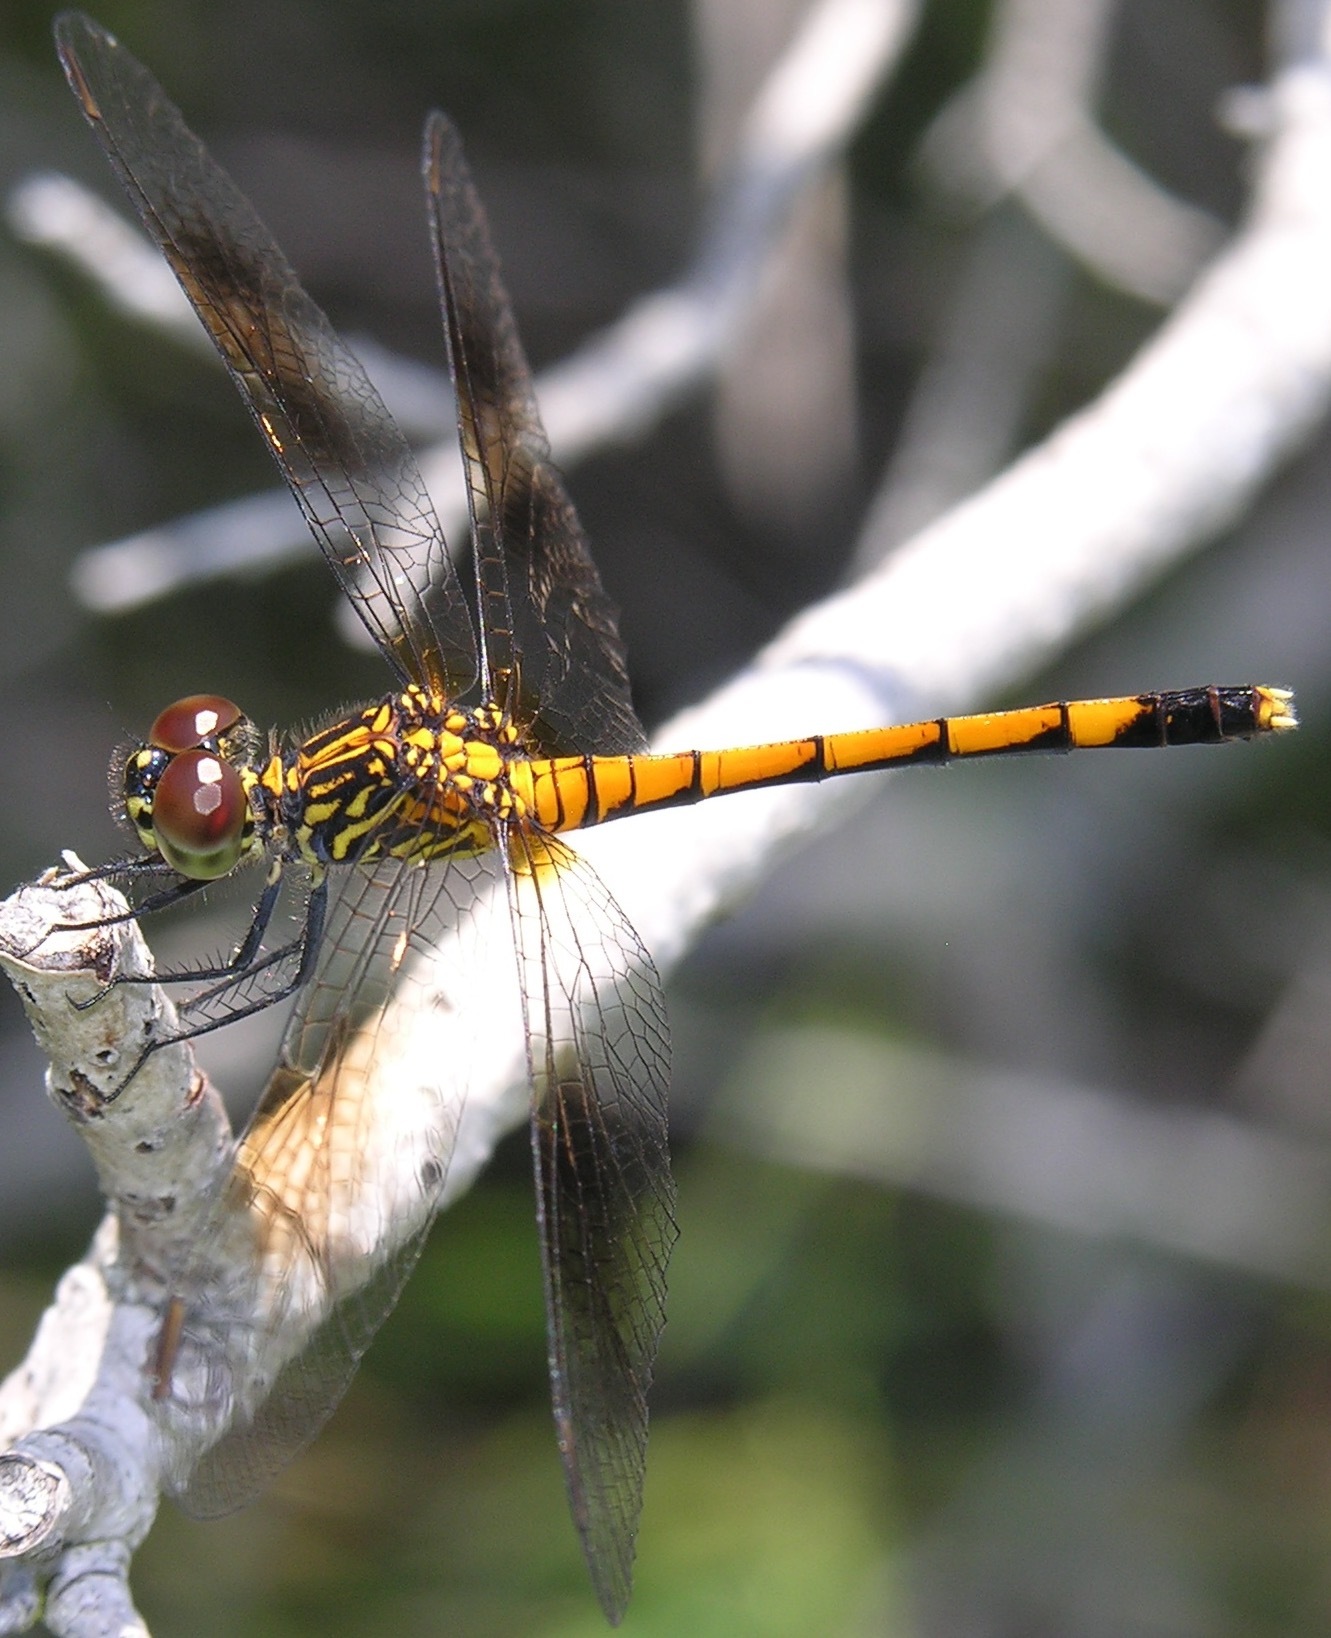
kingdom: Animalia
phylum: Arthropoda
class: Insecta
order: Odonata
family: Libellulidae
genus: Erythrodiplax
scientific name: Erythrodiplax berenice
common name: Seaside dragonlet
